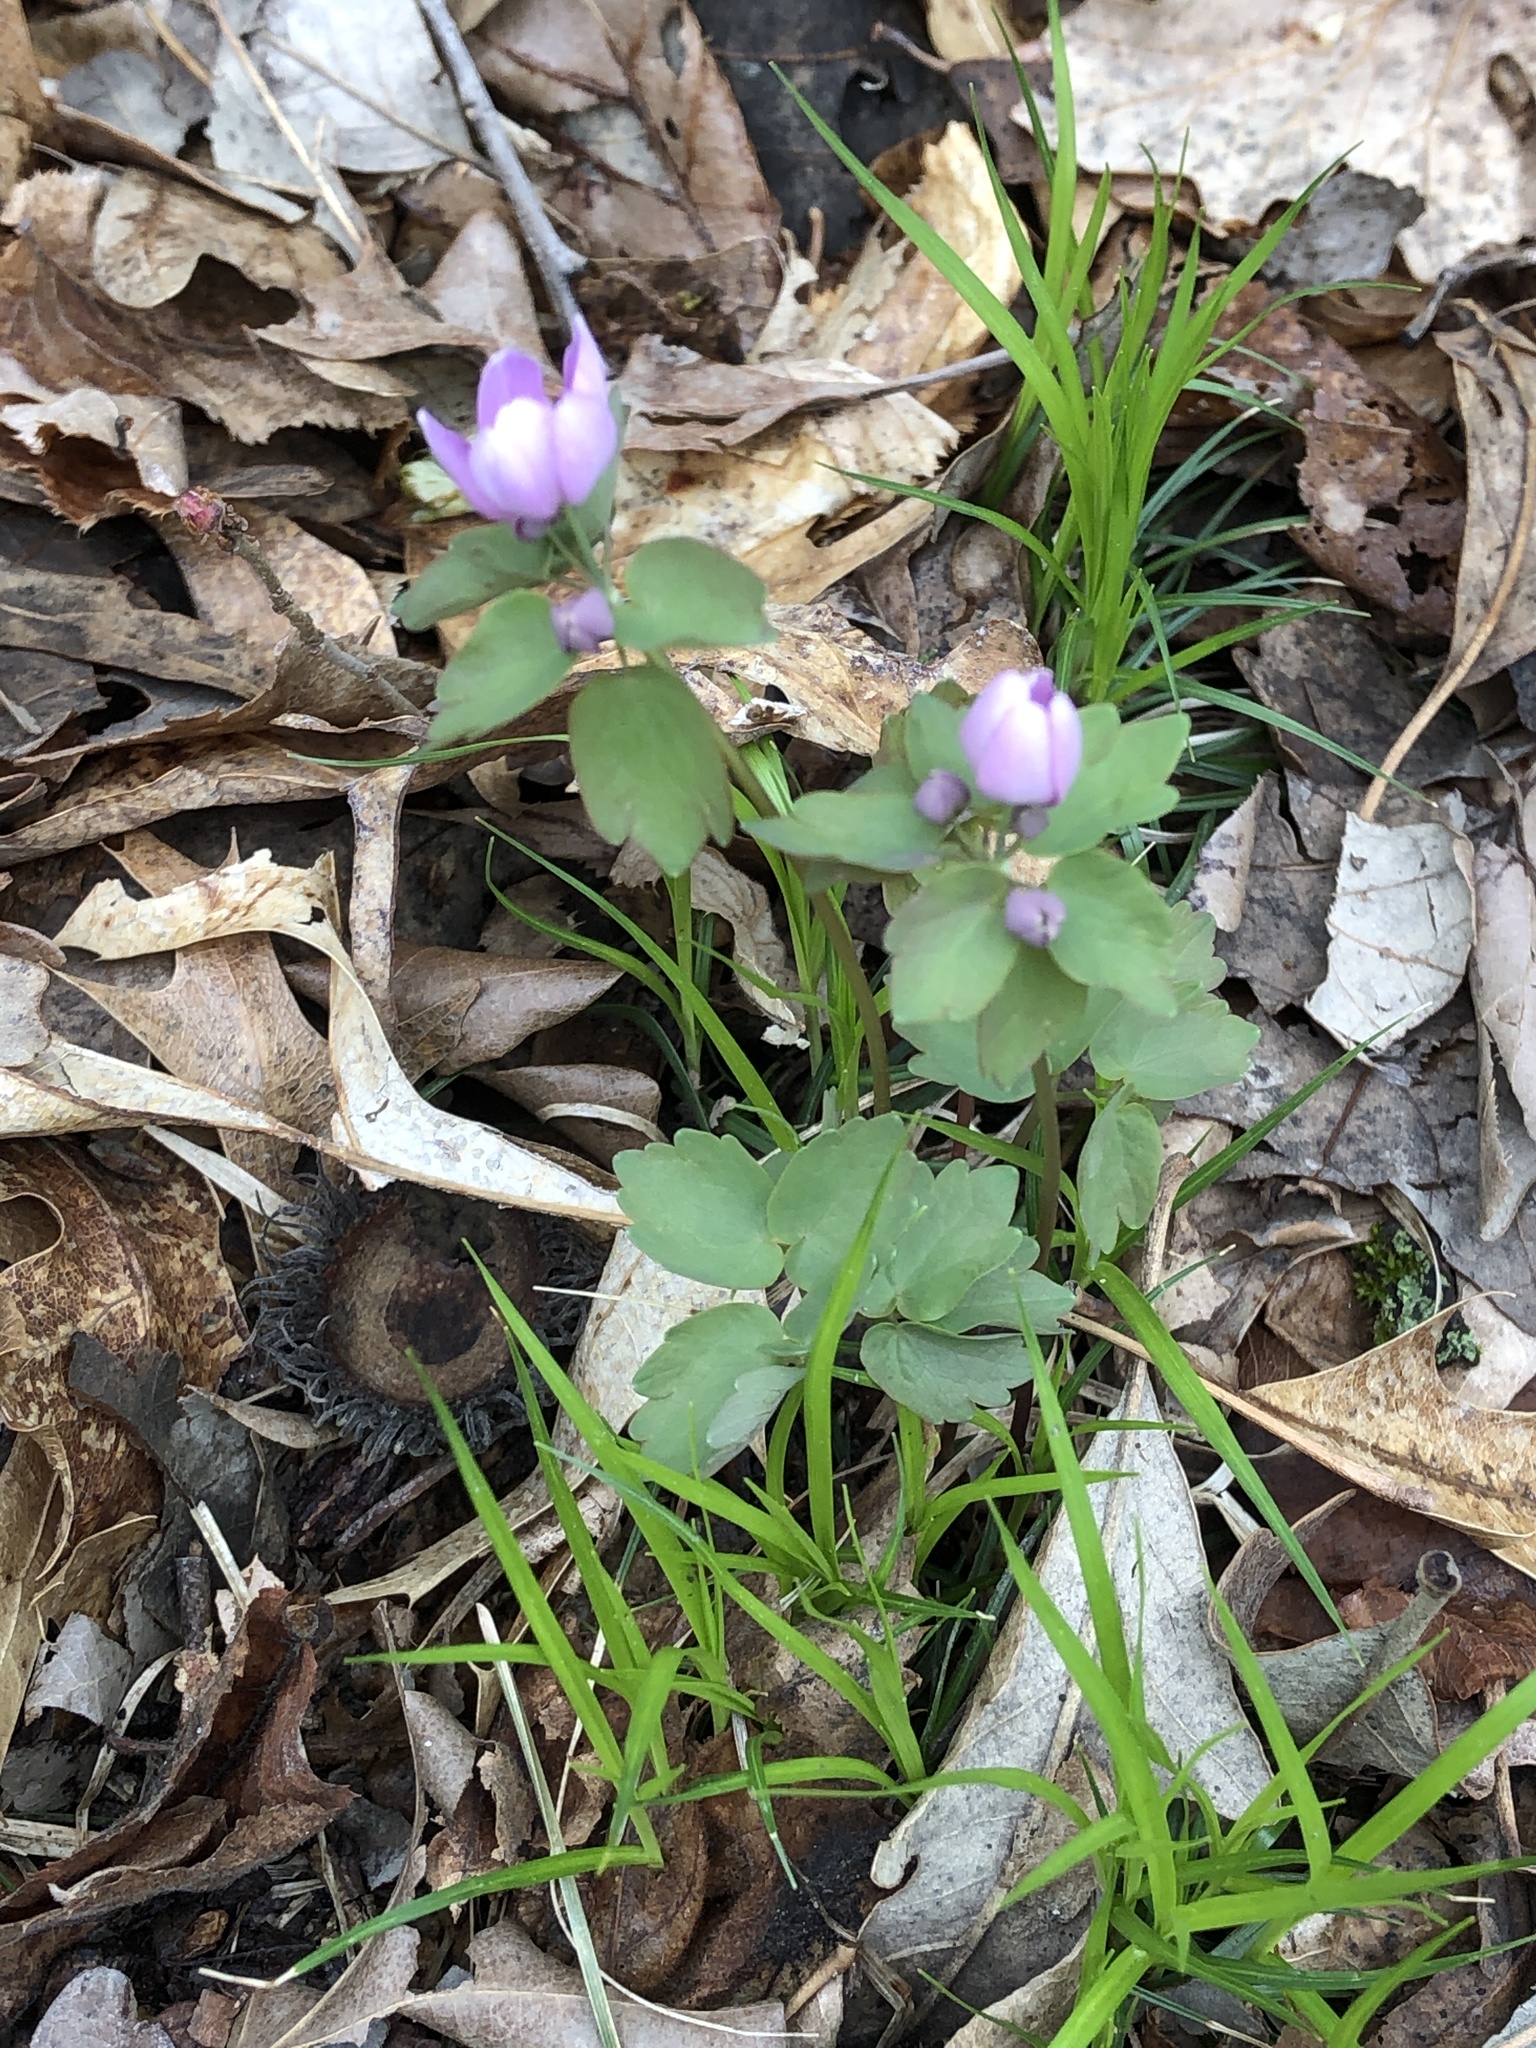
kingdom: Plantae
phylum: Tracheophyta
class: Magnoliopsida
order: Ranunculales
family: Ranunculaceae
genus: Thalictrum
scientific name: Thalictrum thalictroides
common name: Rue-anemone
